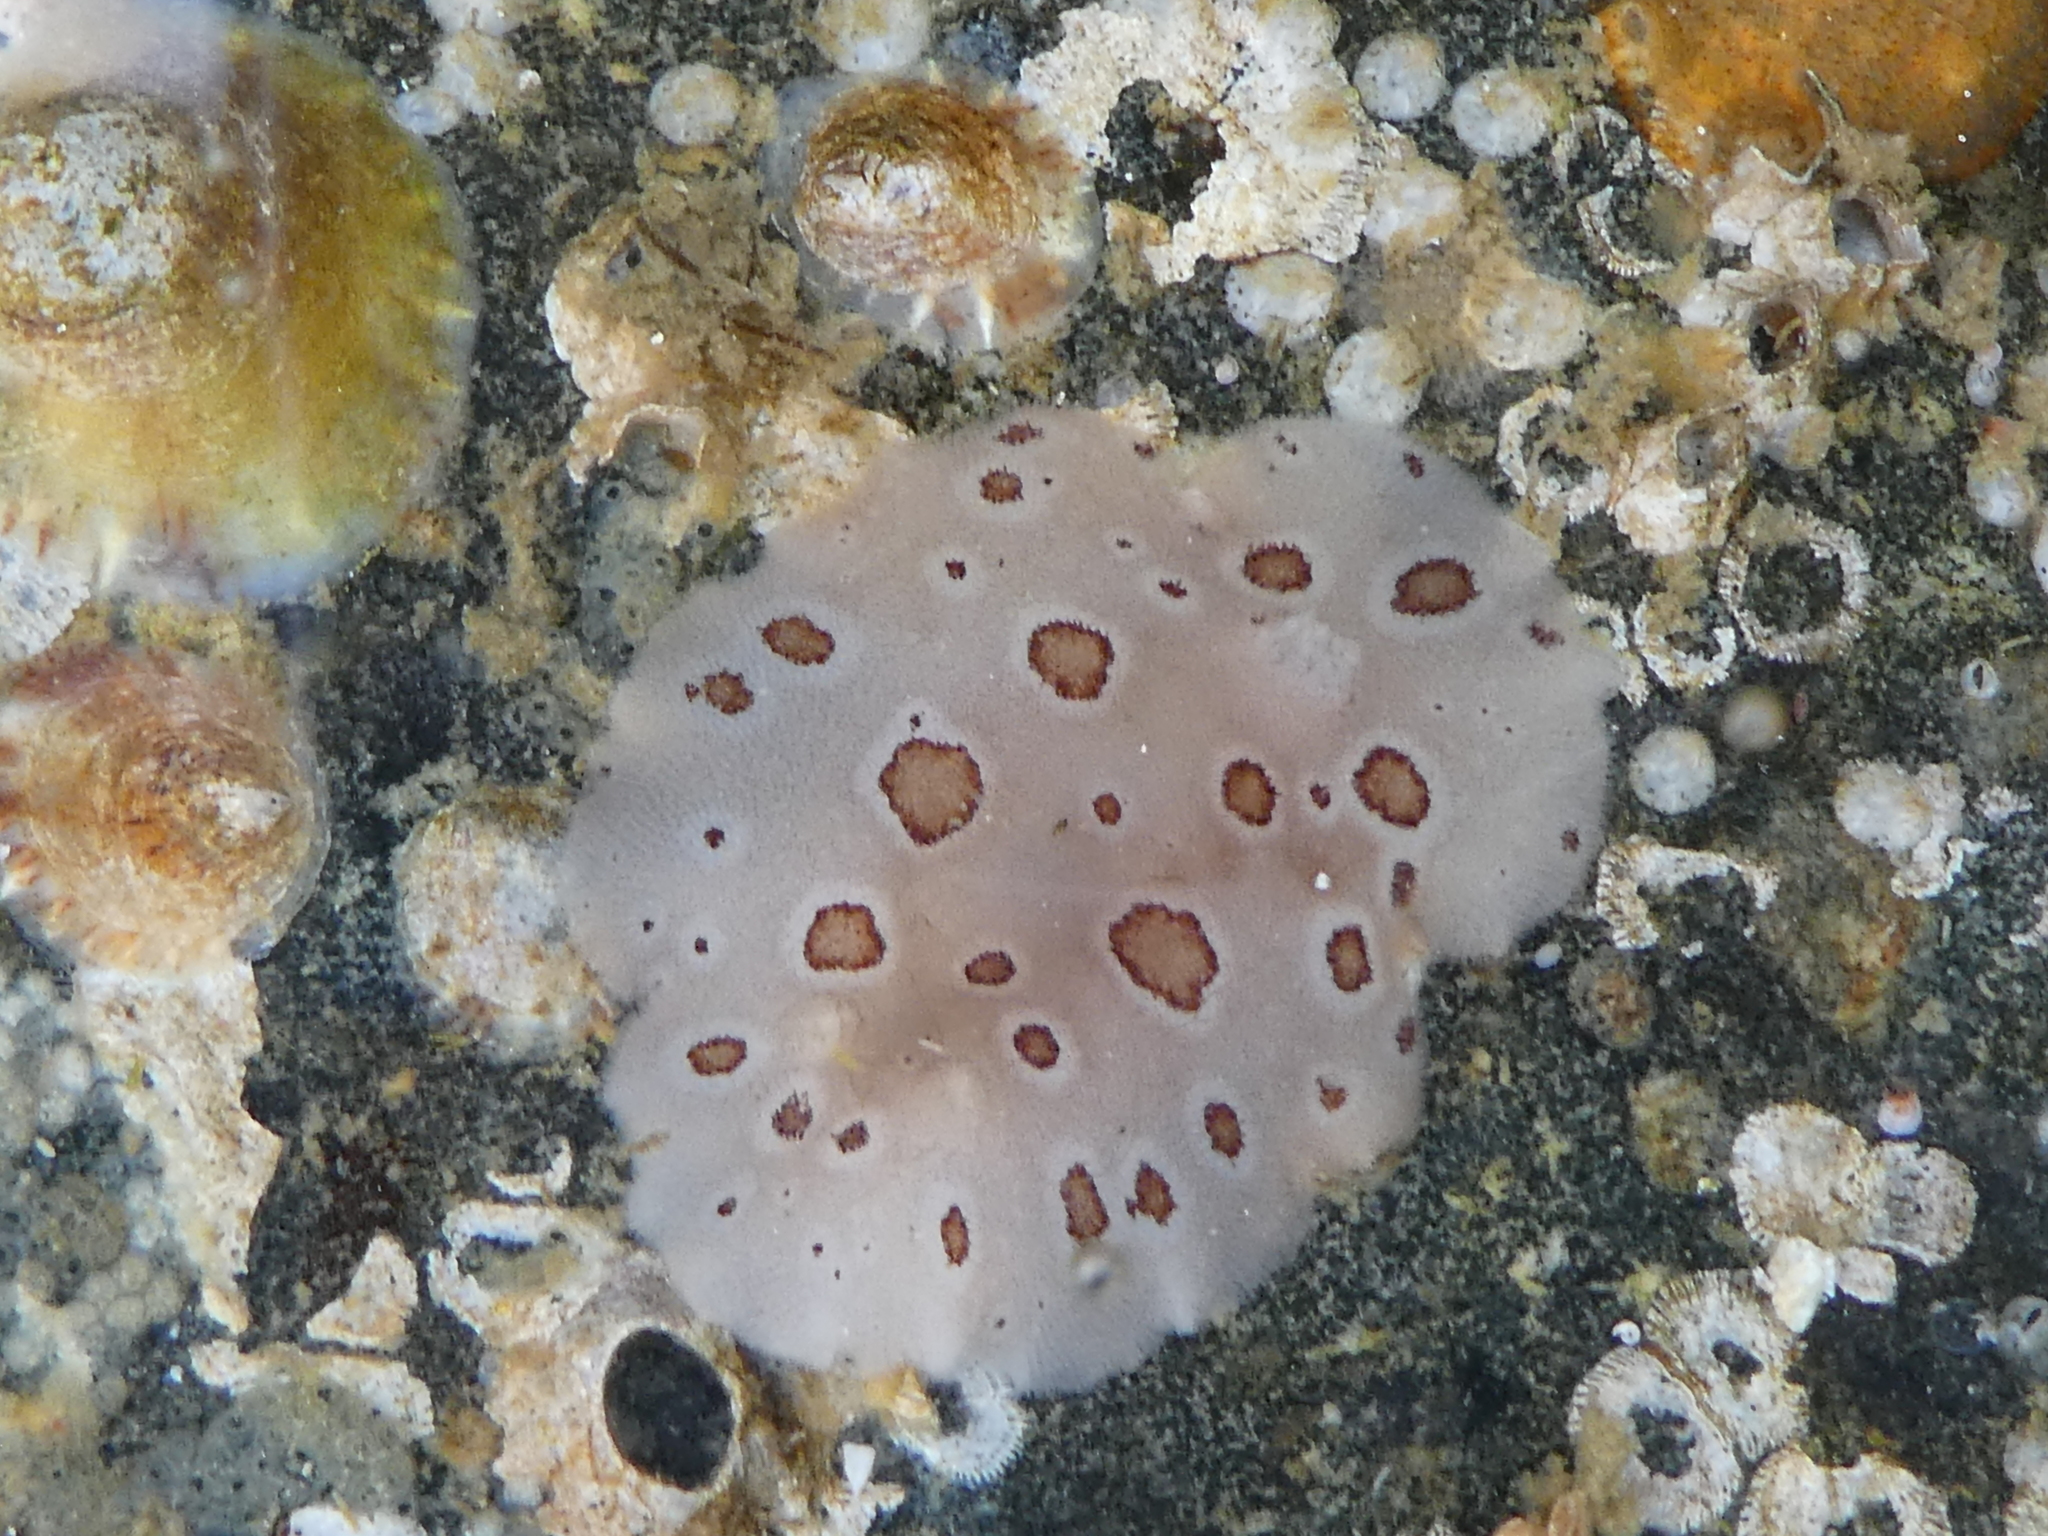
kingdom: Animalia
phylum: Mollusca
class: Gastropoda
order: Nudibranchia
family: Discodorididae
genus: Diaulula
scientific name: Diaulula odonoghuei
